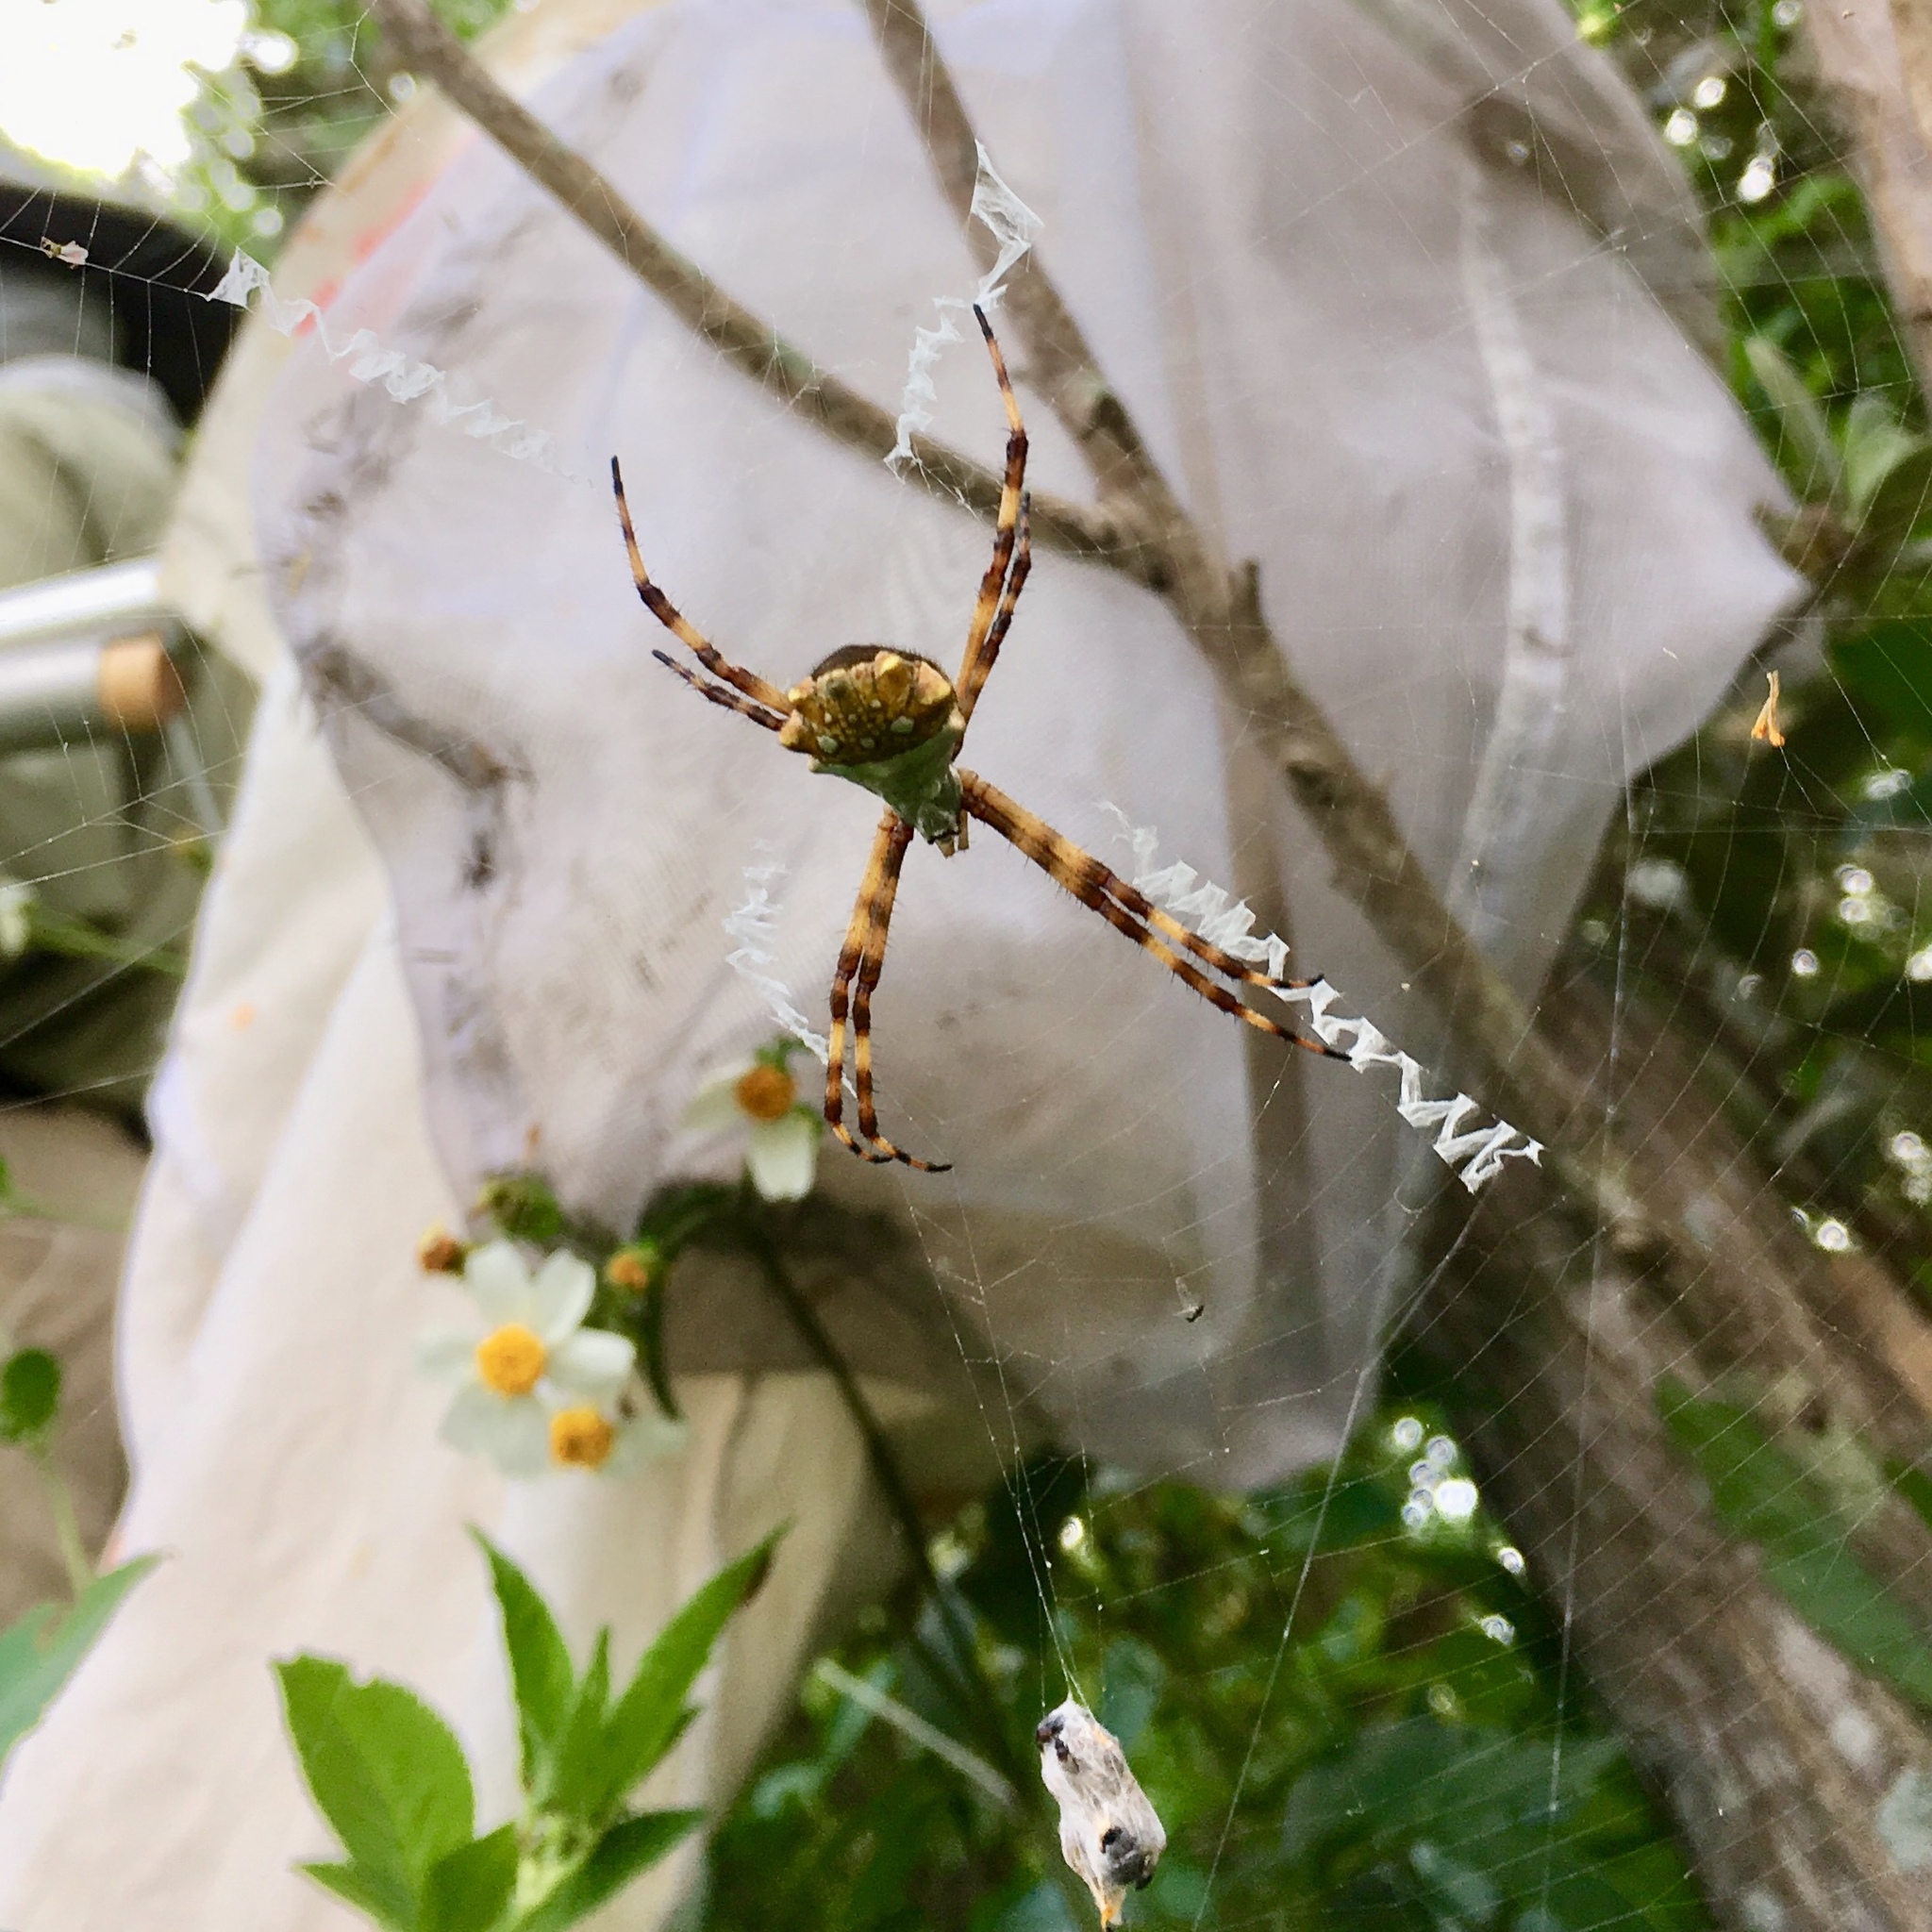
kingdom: Animalia
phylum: Arthropoda
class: Arachnida
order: Araneae
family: Araneidae
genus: Argiope
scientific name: Argiope argentata
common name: Orb weavers
